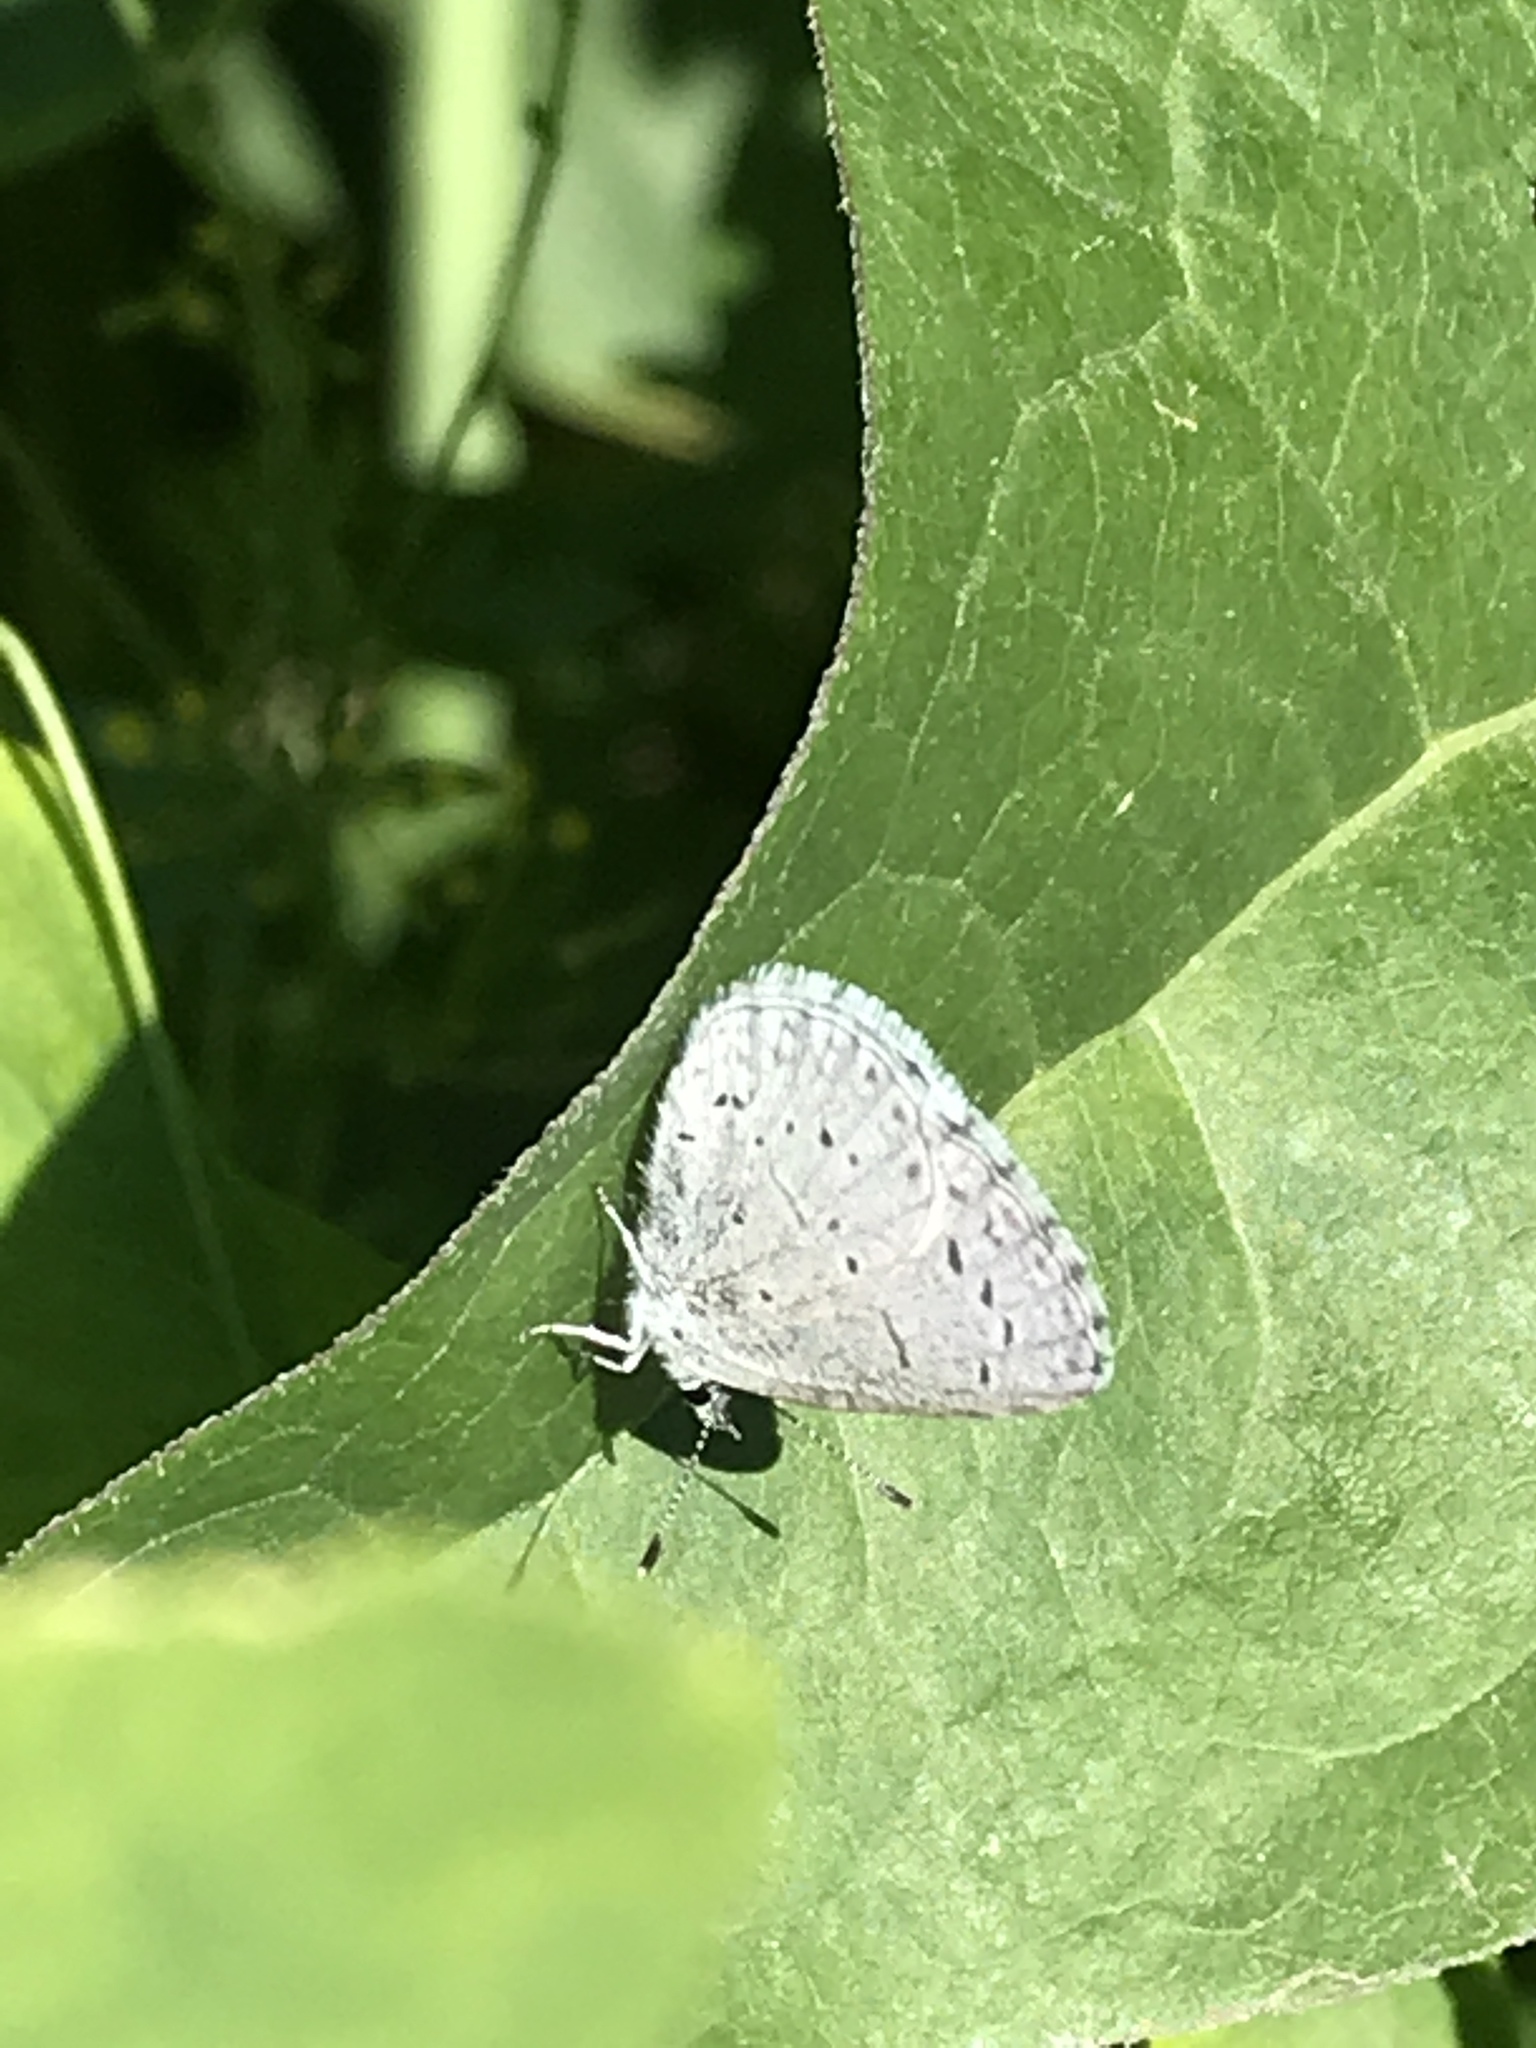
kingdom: Animalia
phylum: Arthropoda
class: Insecta
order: Lepidoptera
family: Lycaenidae
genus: Celastrina
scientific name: Celastrina ladon
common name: Spring azure
